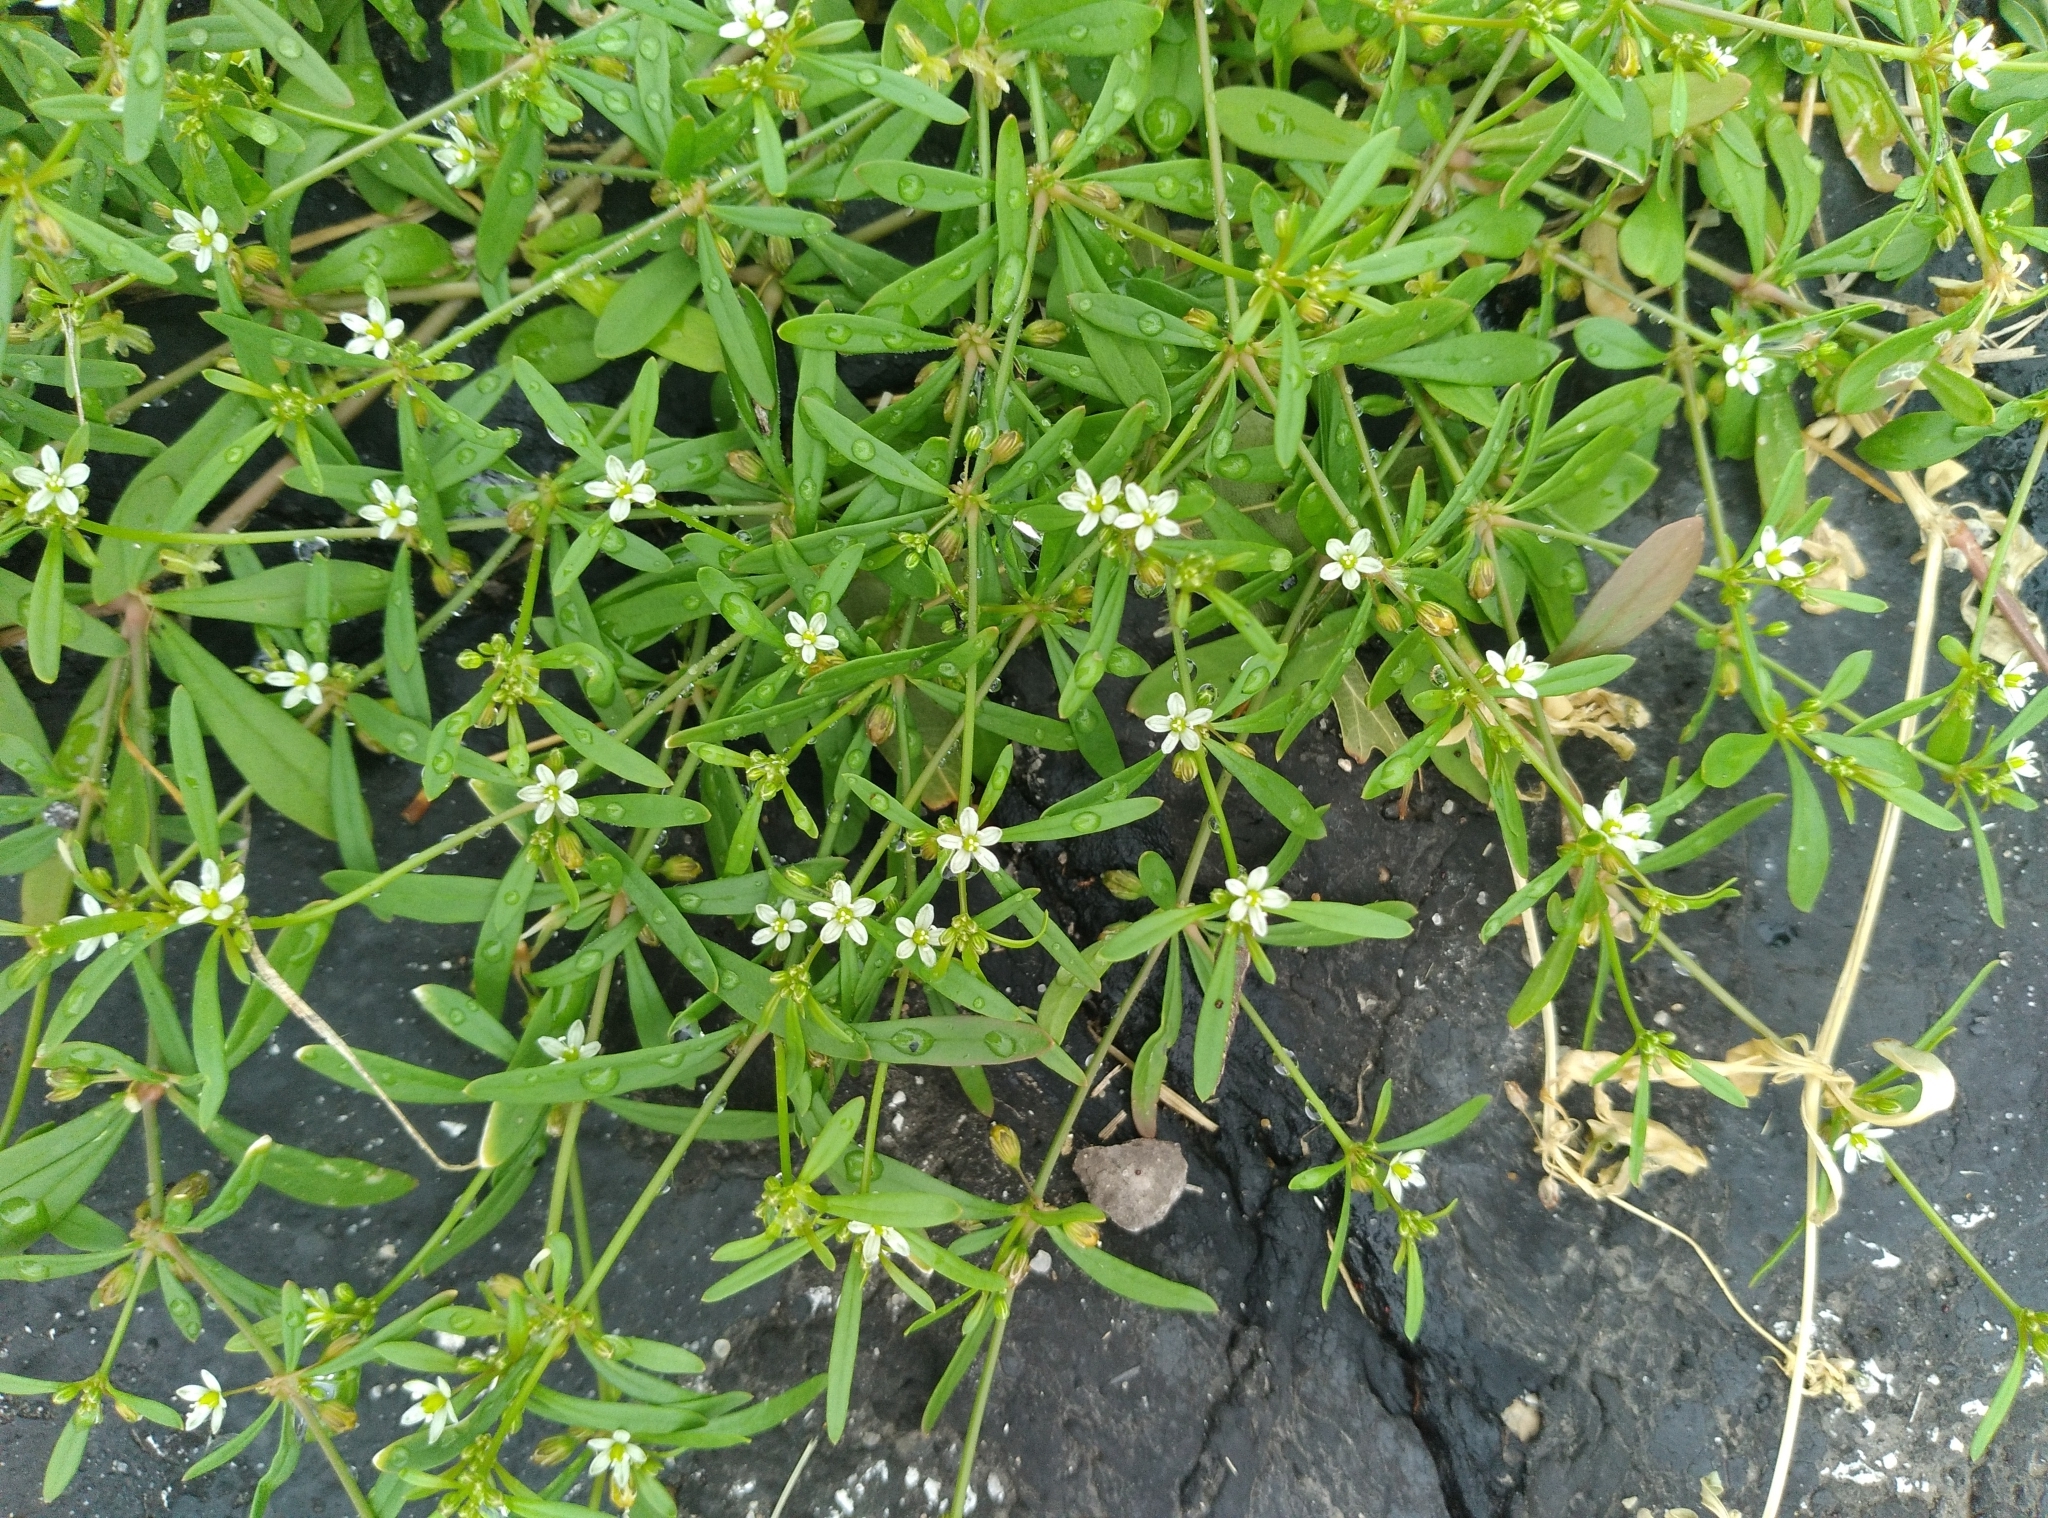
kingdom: Plantae
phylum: Tracheophyta
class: Magnoliopsida
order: Caryophyllales
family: Molluginaceae
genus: Mollugo
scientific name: Mollugo verticillata
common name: Green carpetweed
